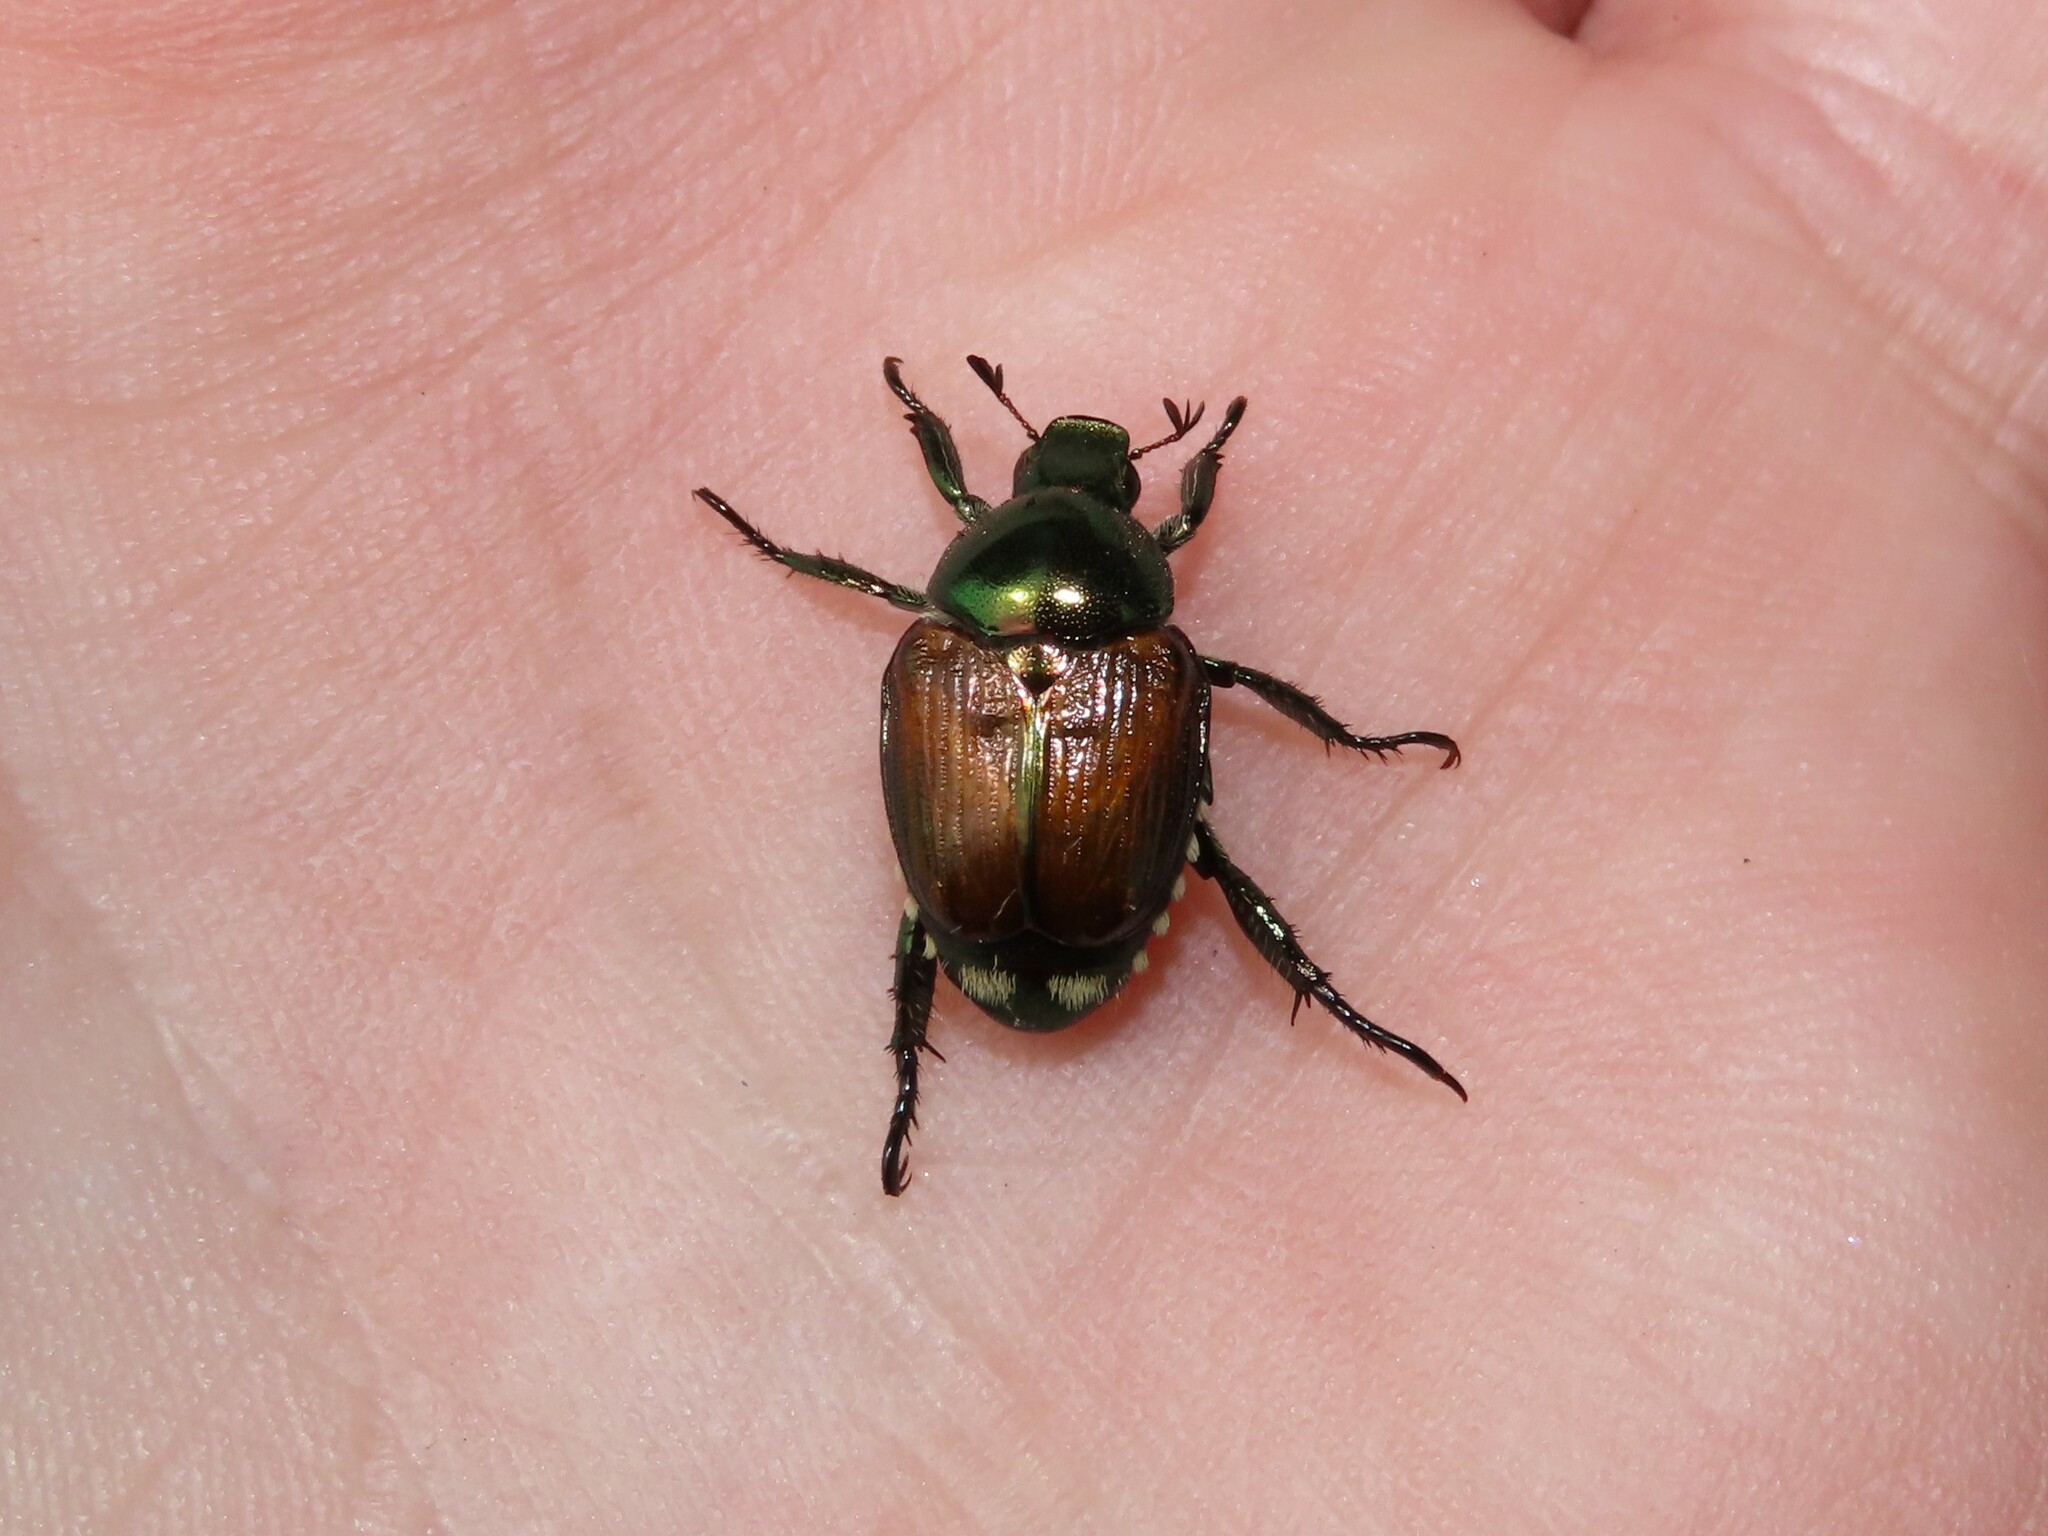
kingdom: Animalia
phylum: Arthropoda
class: Insecta
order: Coleoptera
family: Scarabaeidae
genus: Popillia
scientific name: Popillia japonica
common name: Japanese beetle
